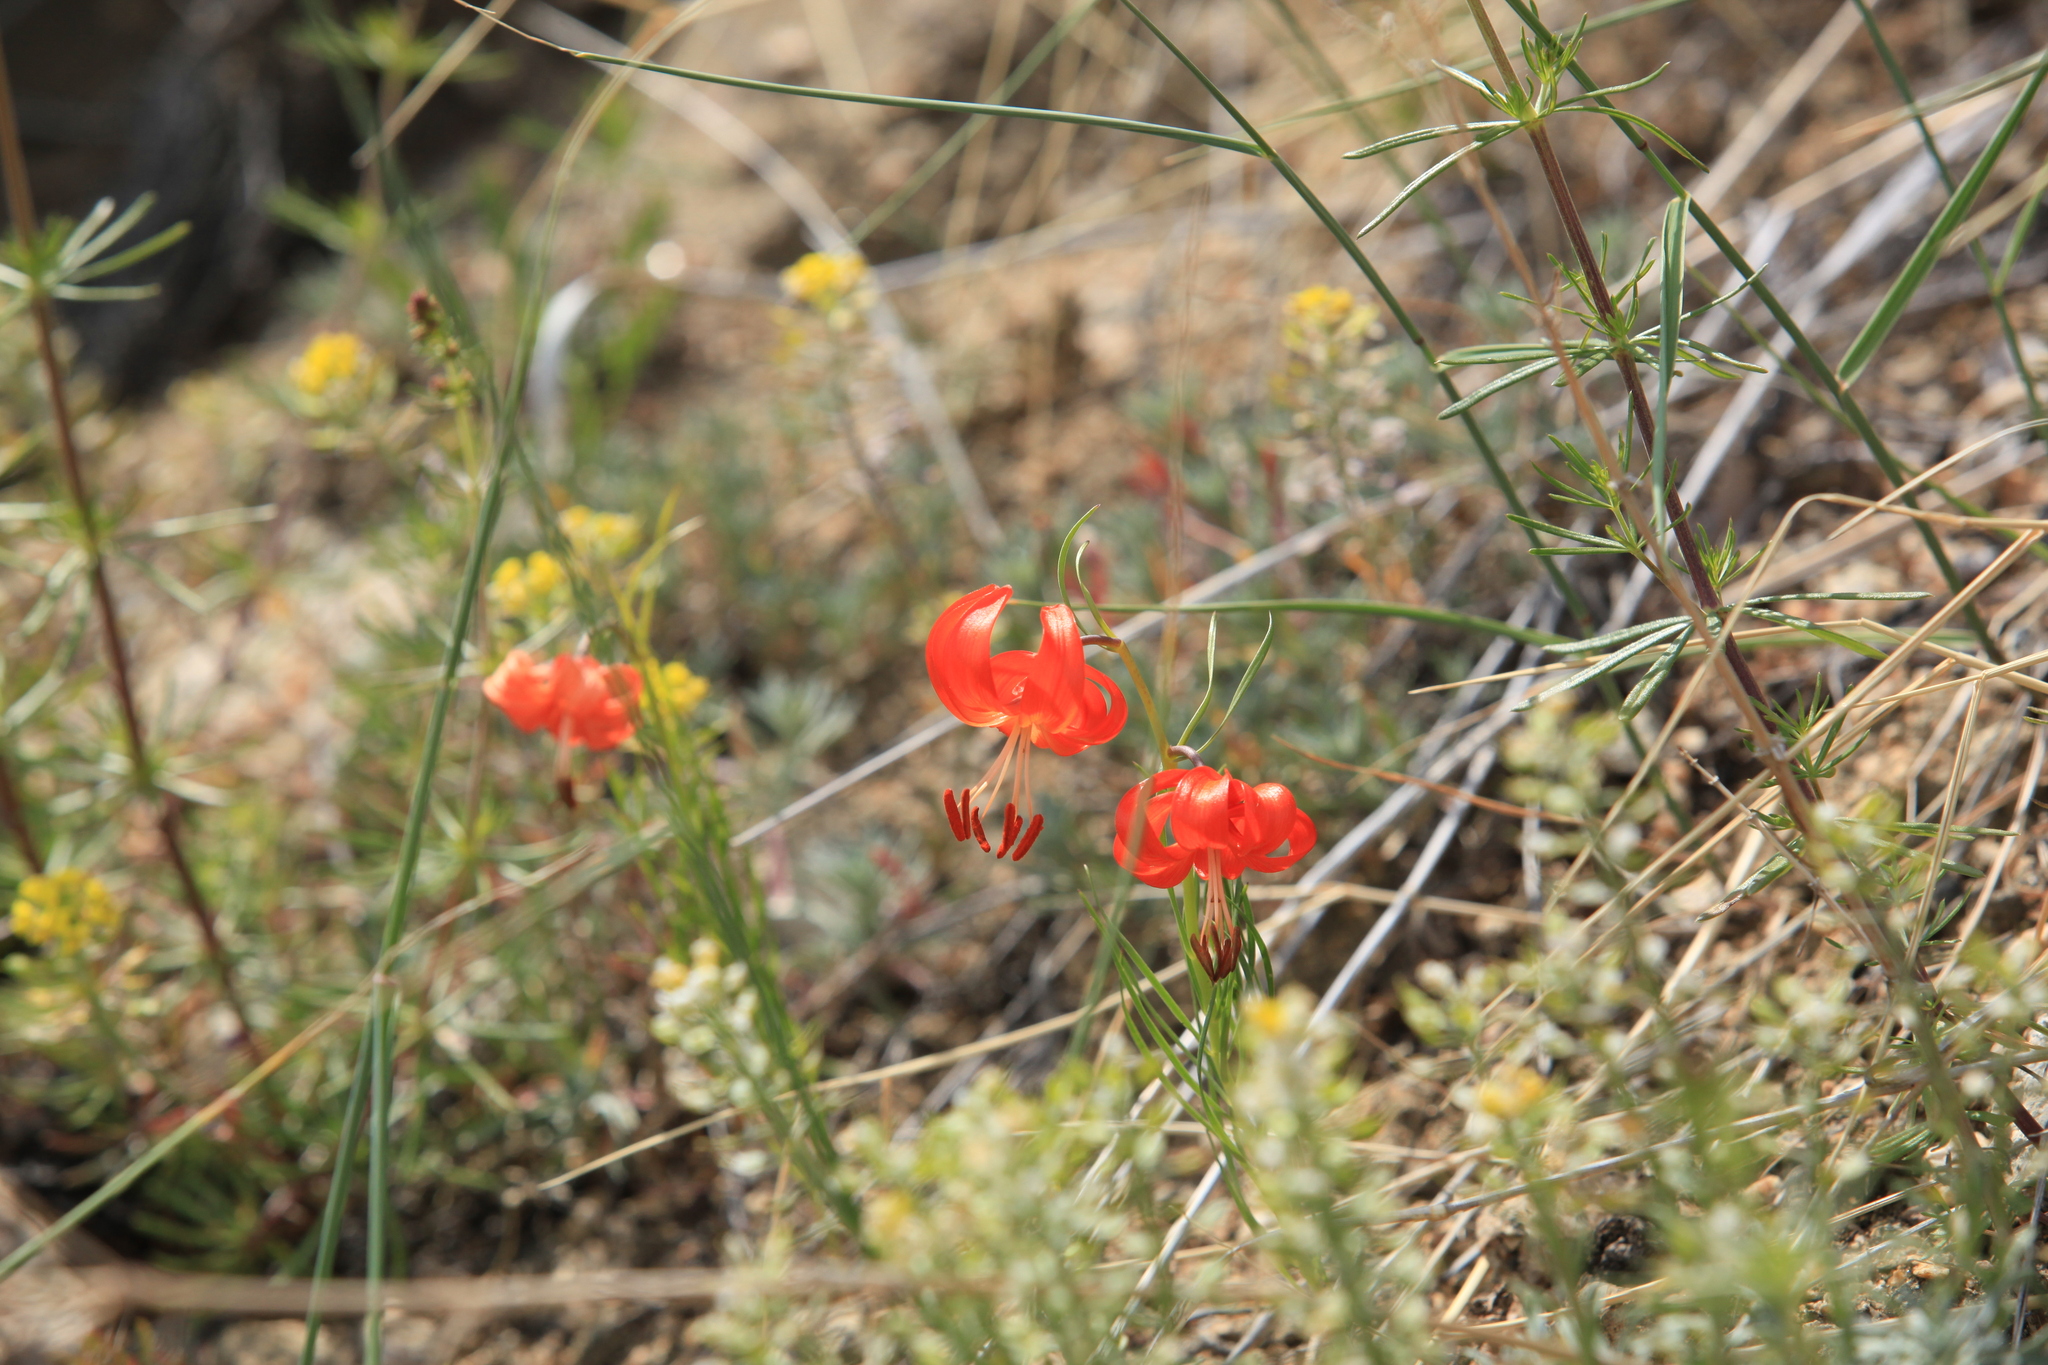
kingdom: Plantae
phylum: Tracheophyta
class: Liliopsida
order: Liliales
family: Liliaceae
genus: Lilium
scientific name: Lilium pumilum
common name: Coral lily
